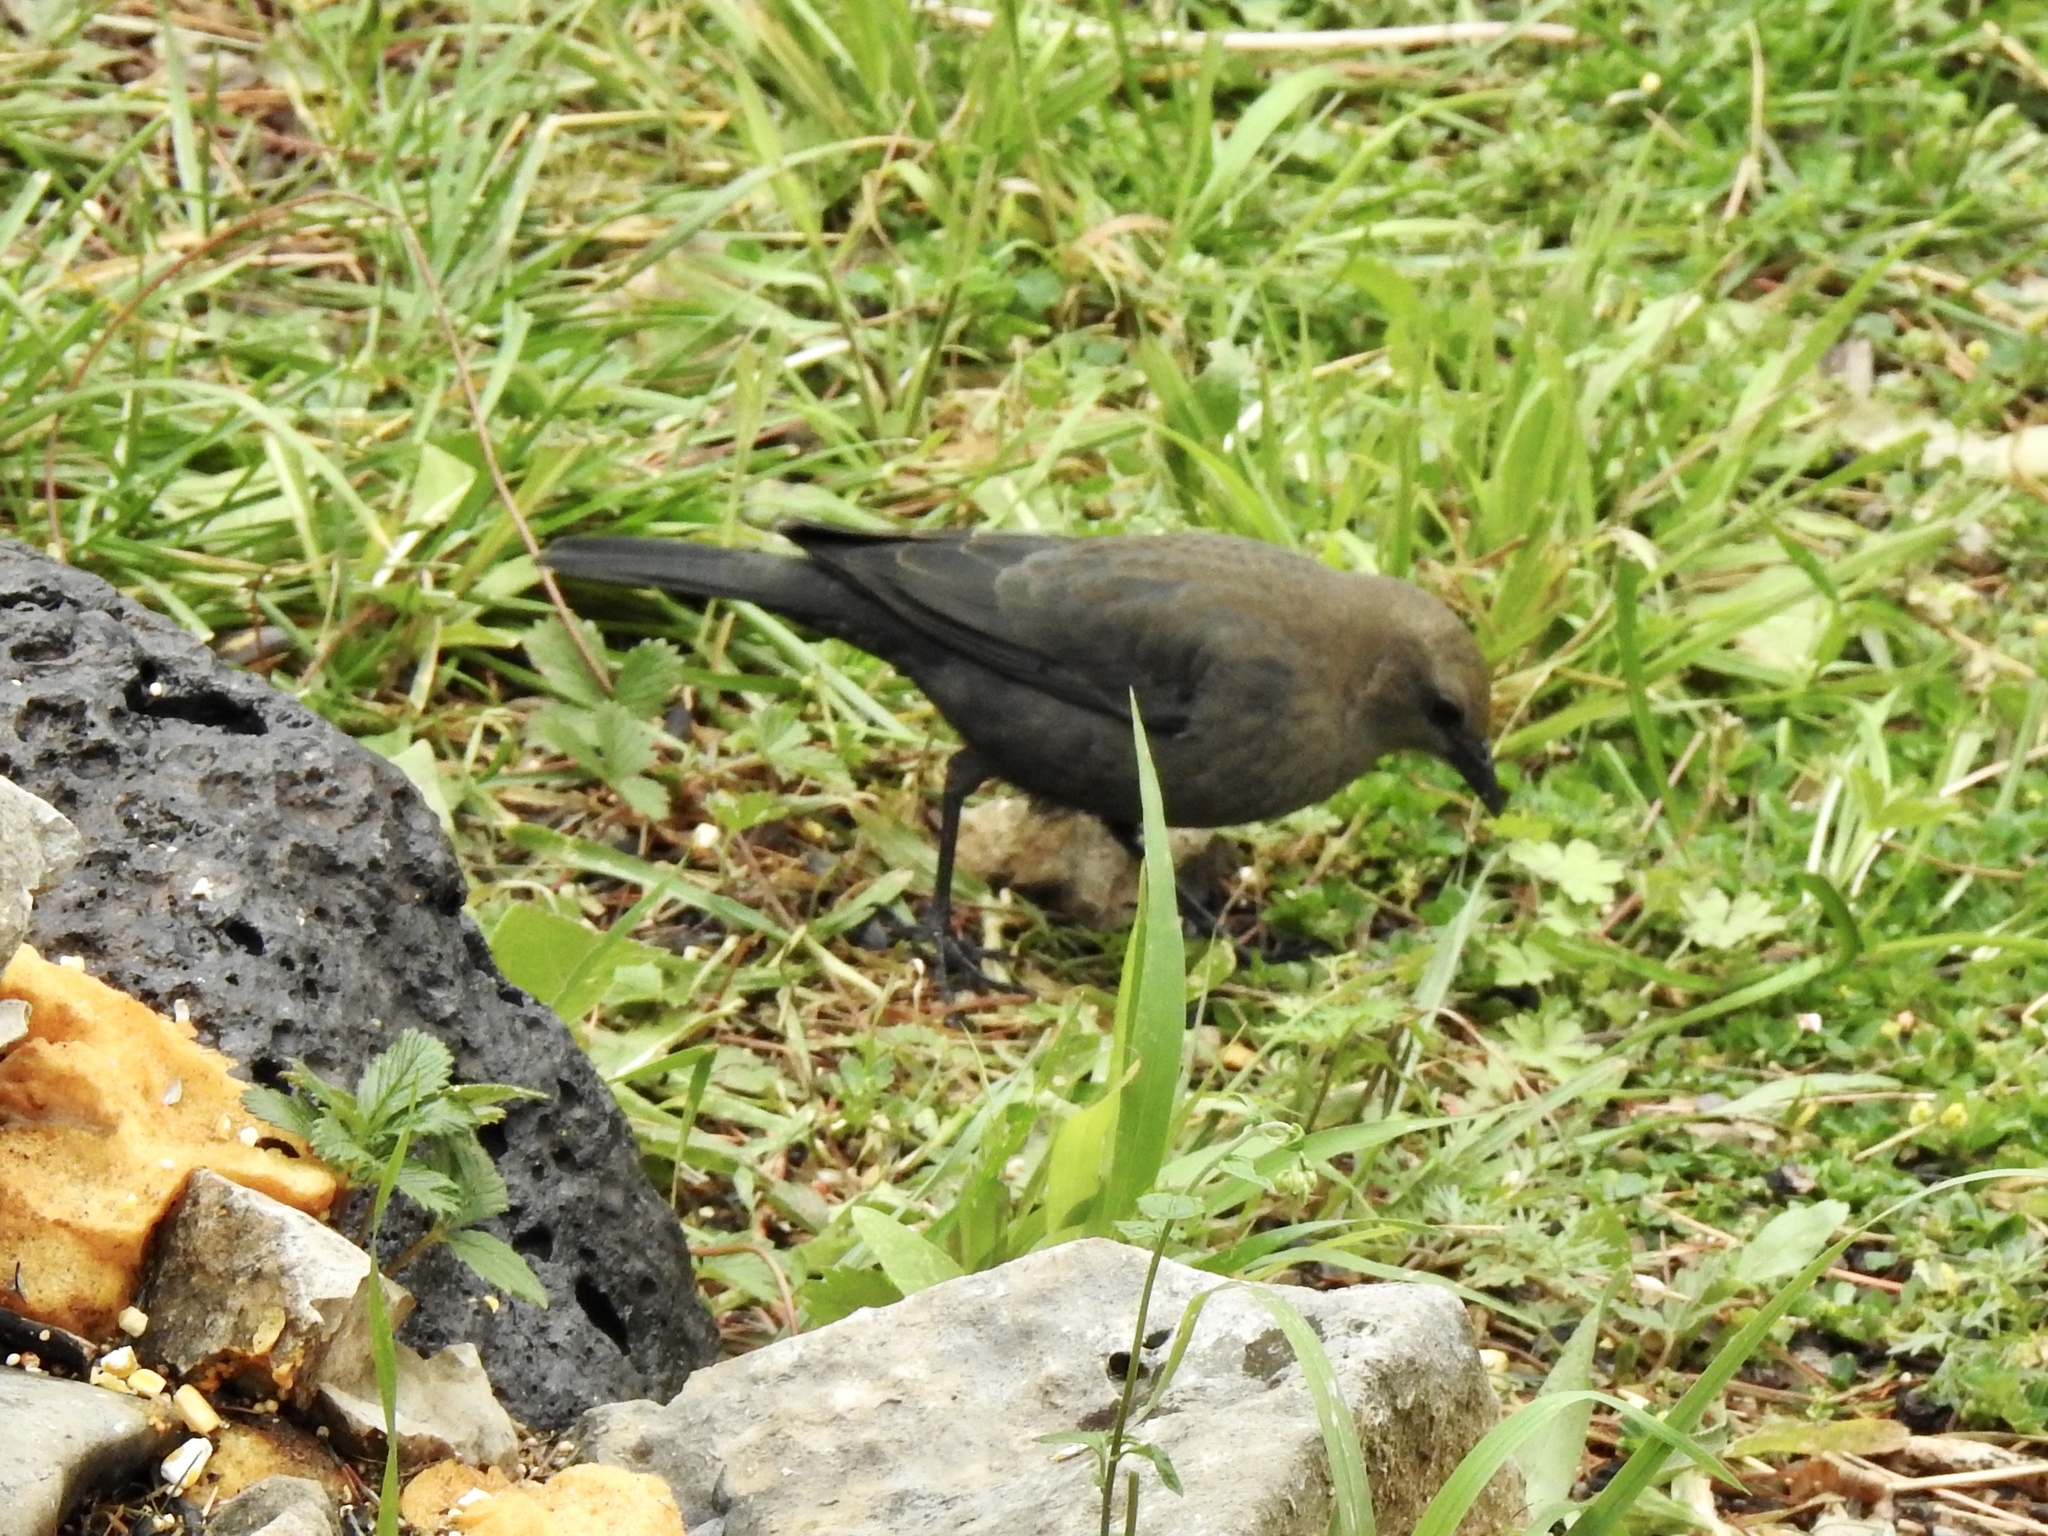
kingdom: Animalia
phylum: Chordata
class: Aves
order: Passeriformes
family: Icteridae
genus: Euphagus
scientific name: Euphagus cyanocephalus
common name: Brewer's blackbird
